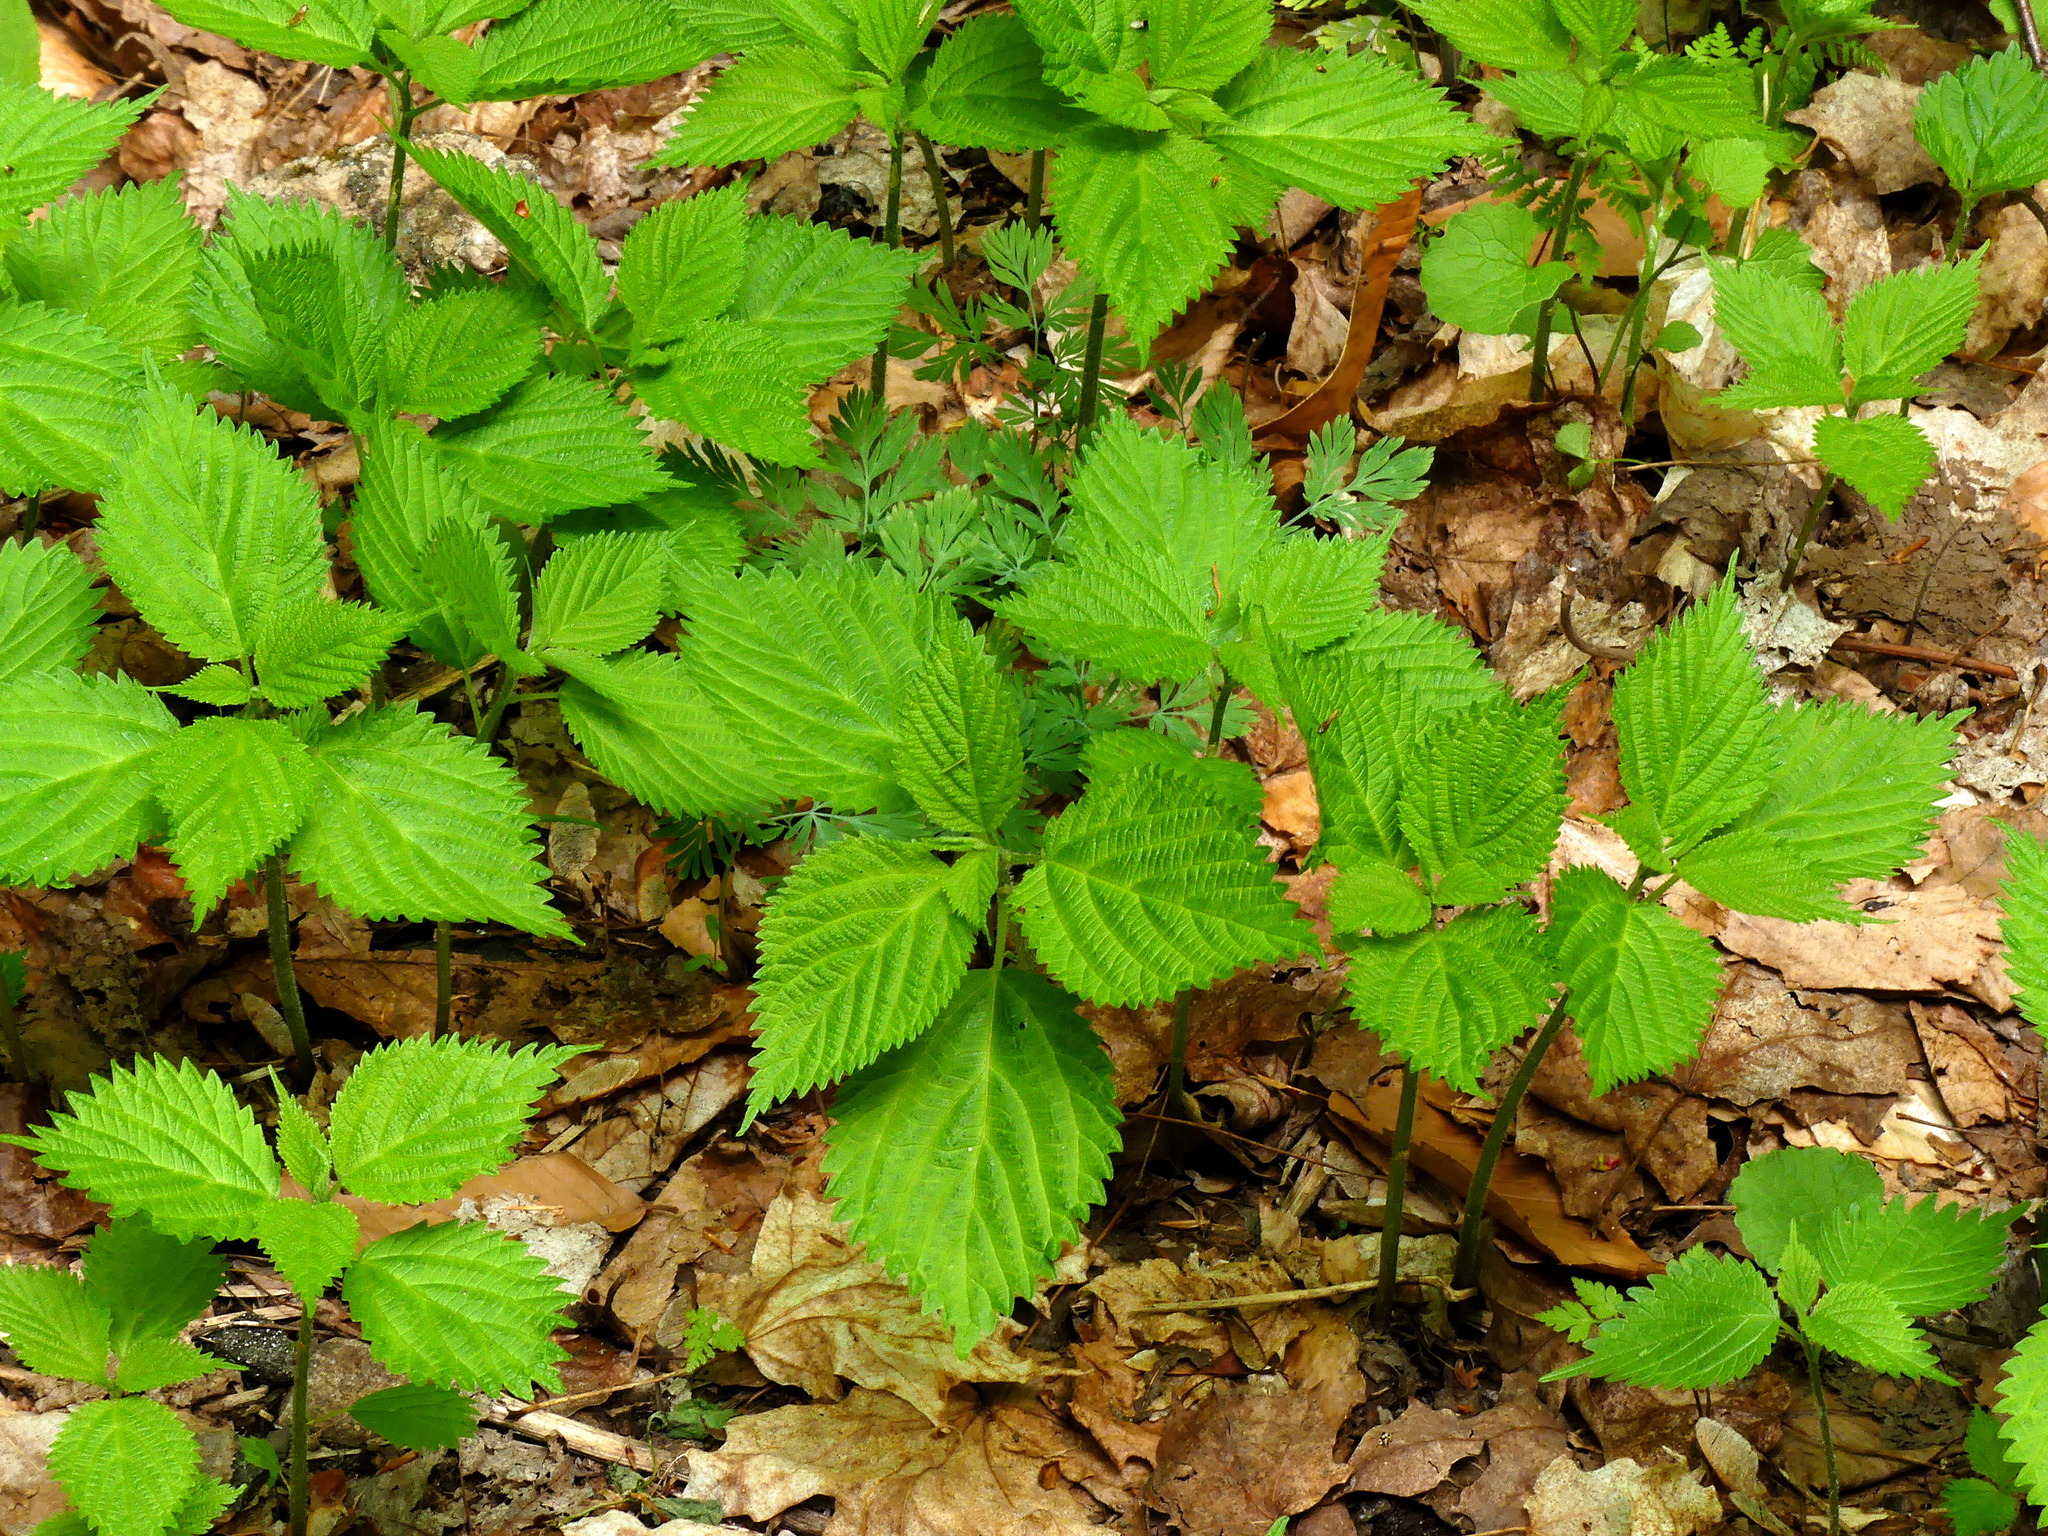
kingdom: Plantae
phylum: Tracheophyta
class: Magnoliopsida
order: Rosales
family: Urticaceae
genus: Urtica
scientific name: Urtica dioica
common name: Common nettle
